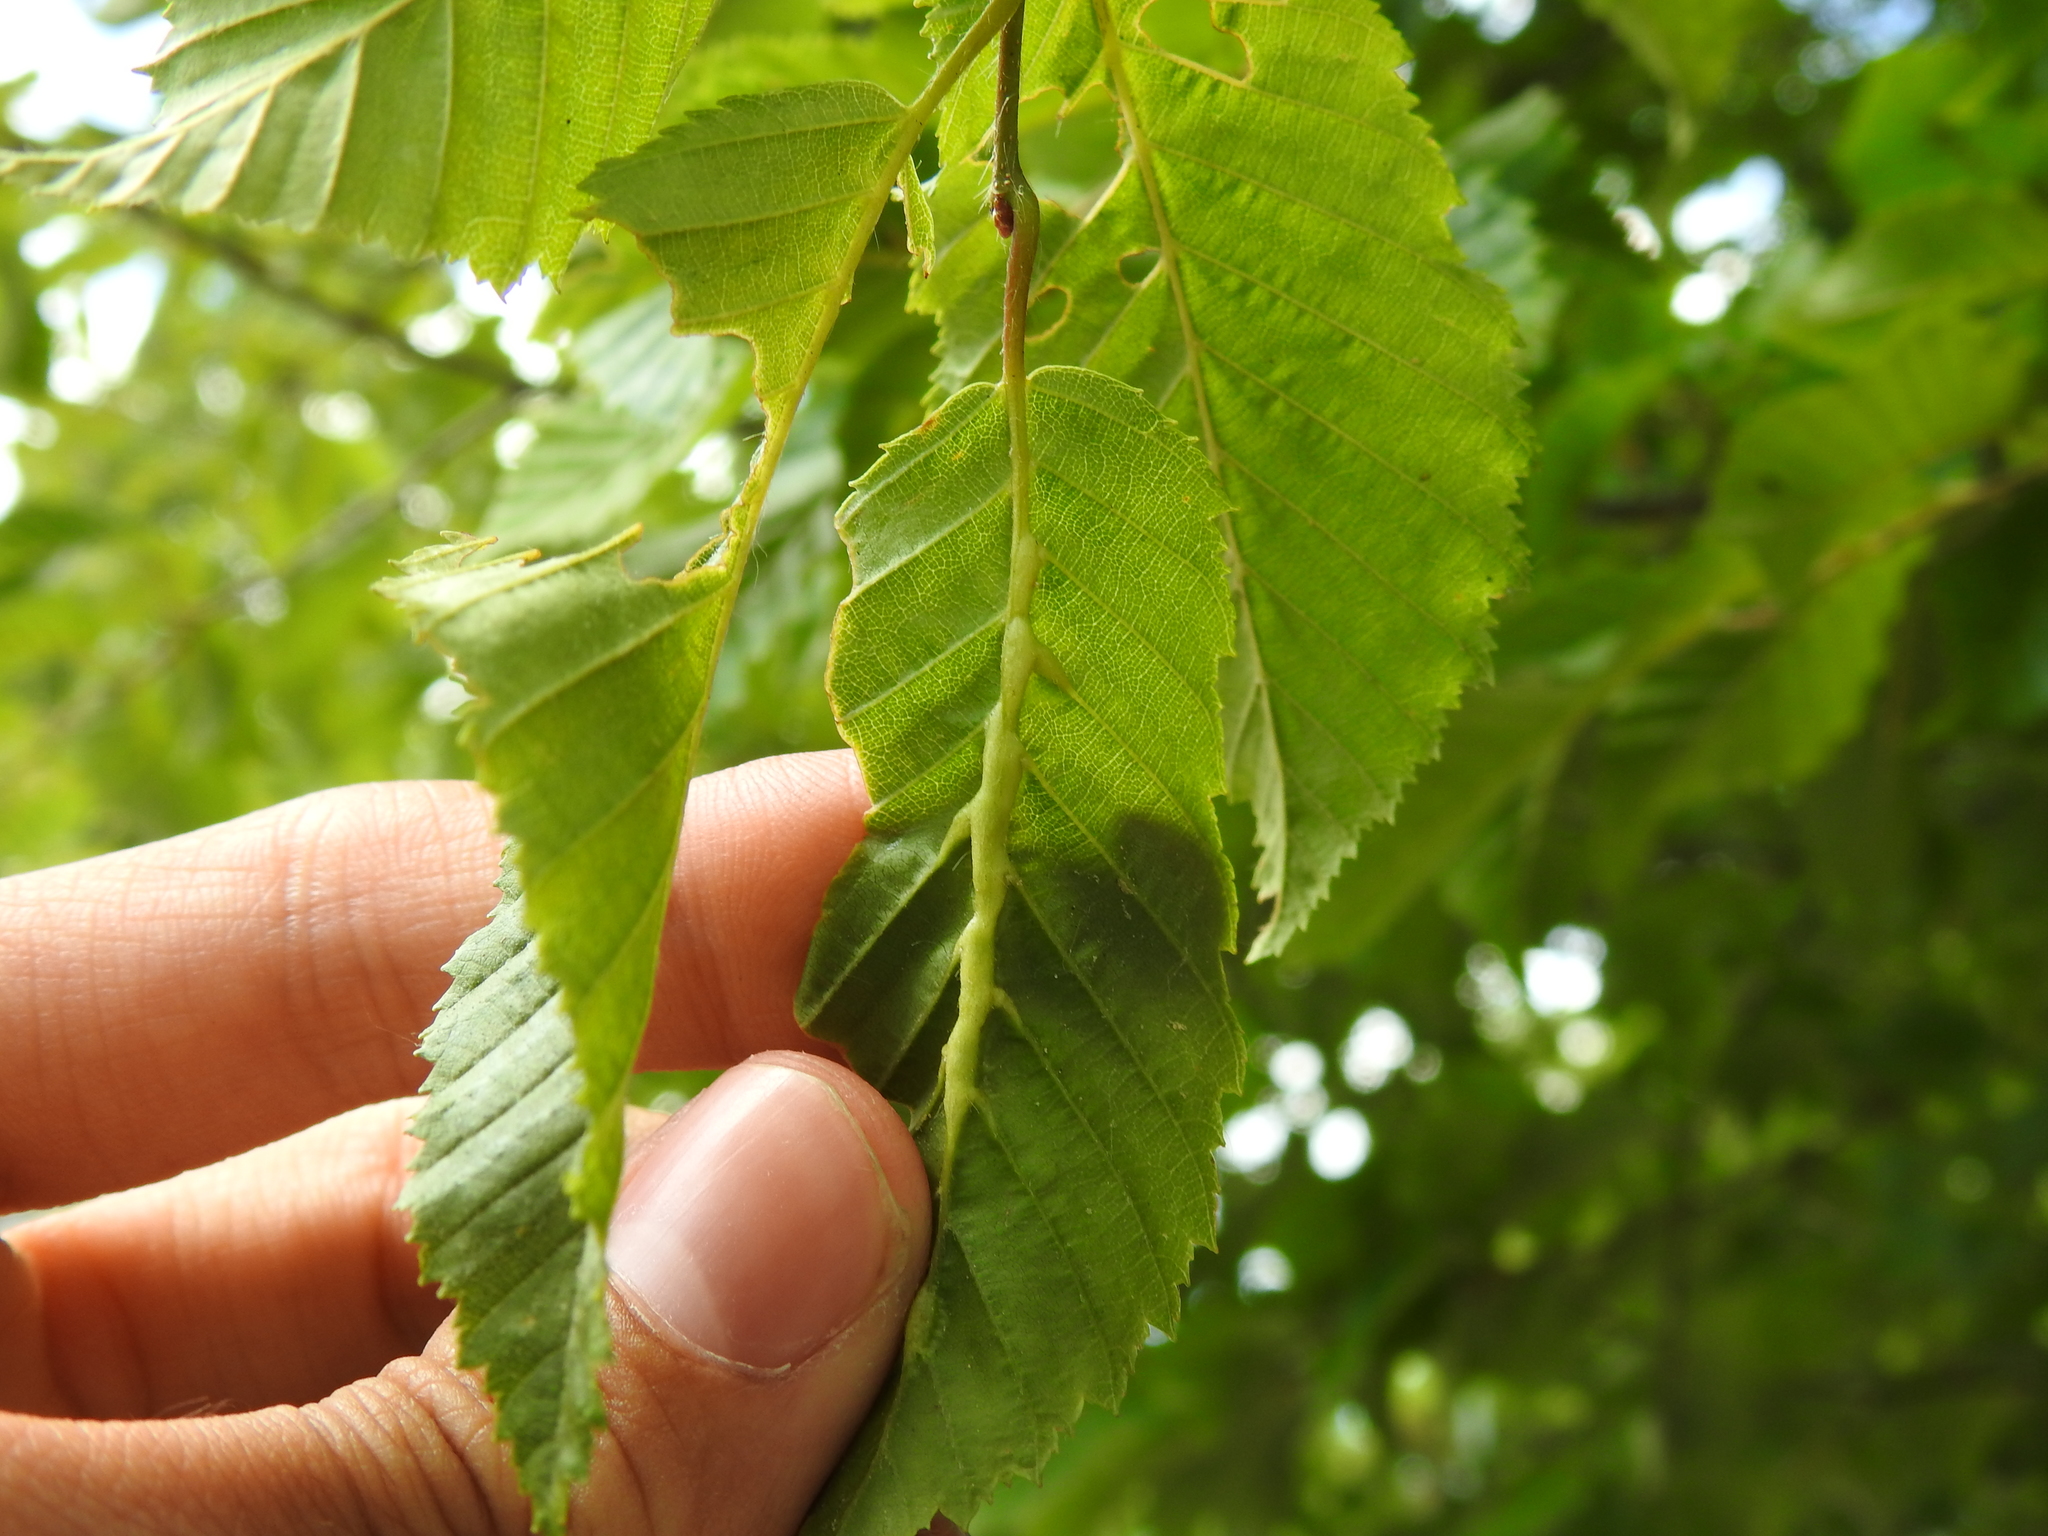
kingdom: Animalia
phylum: Arthropoda
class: Insecta
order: Diptera
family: Cecidomyiidae
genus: Zygiobia
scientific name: Zygiobia carpini
